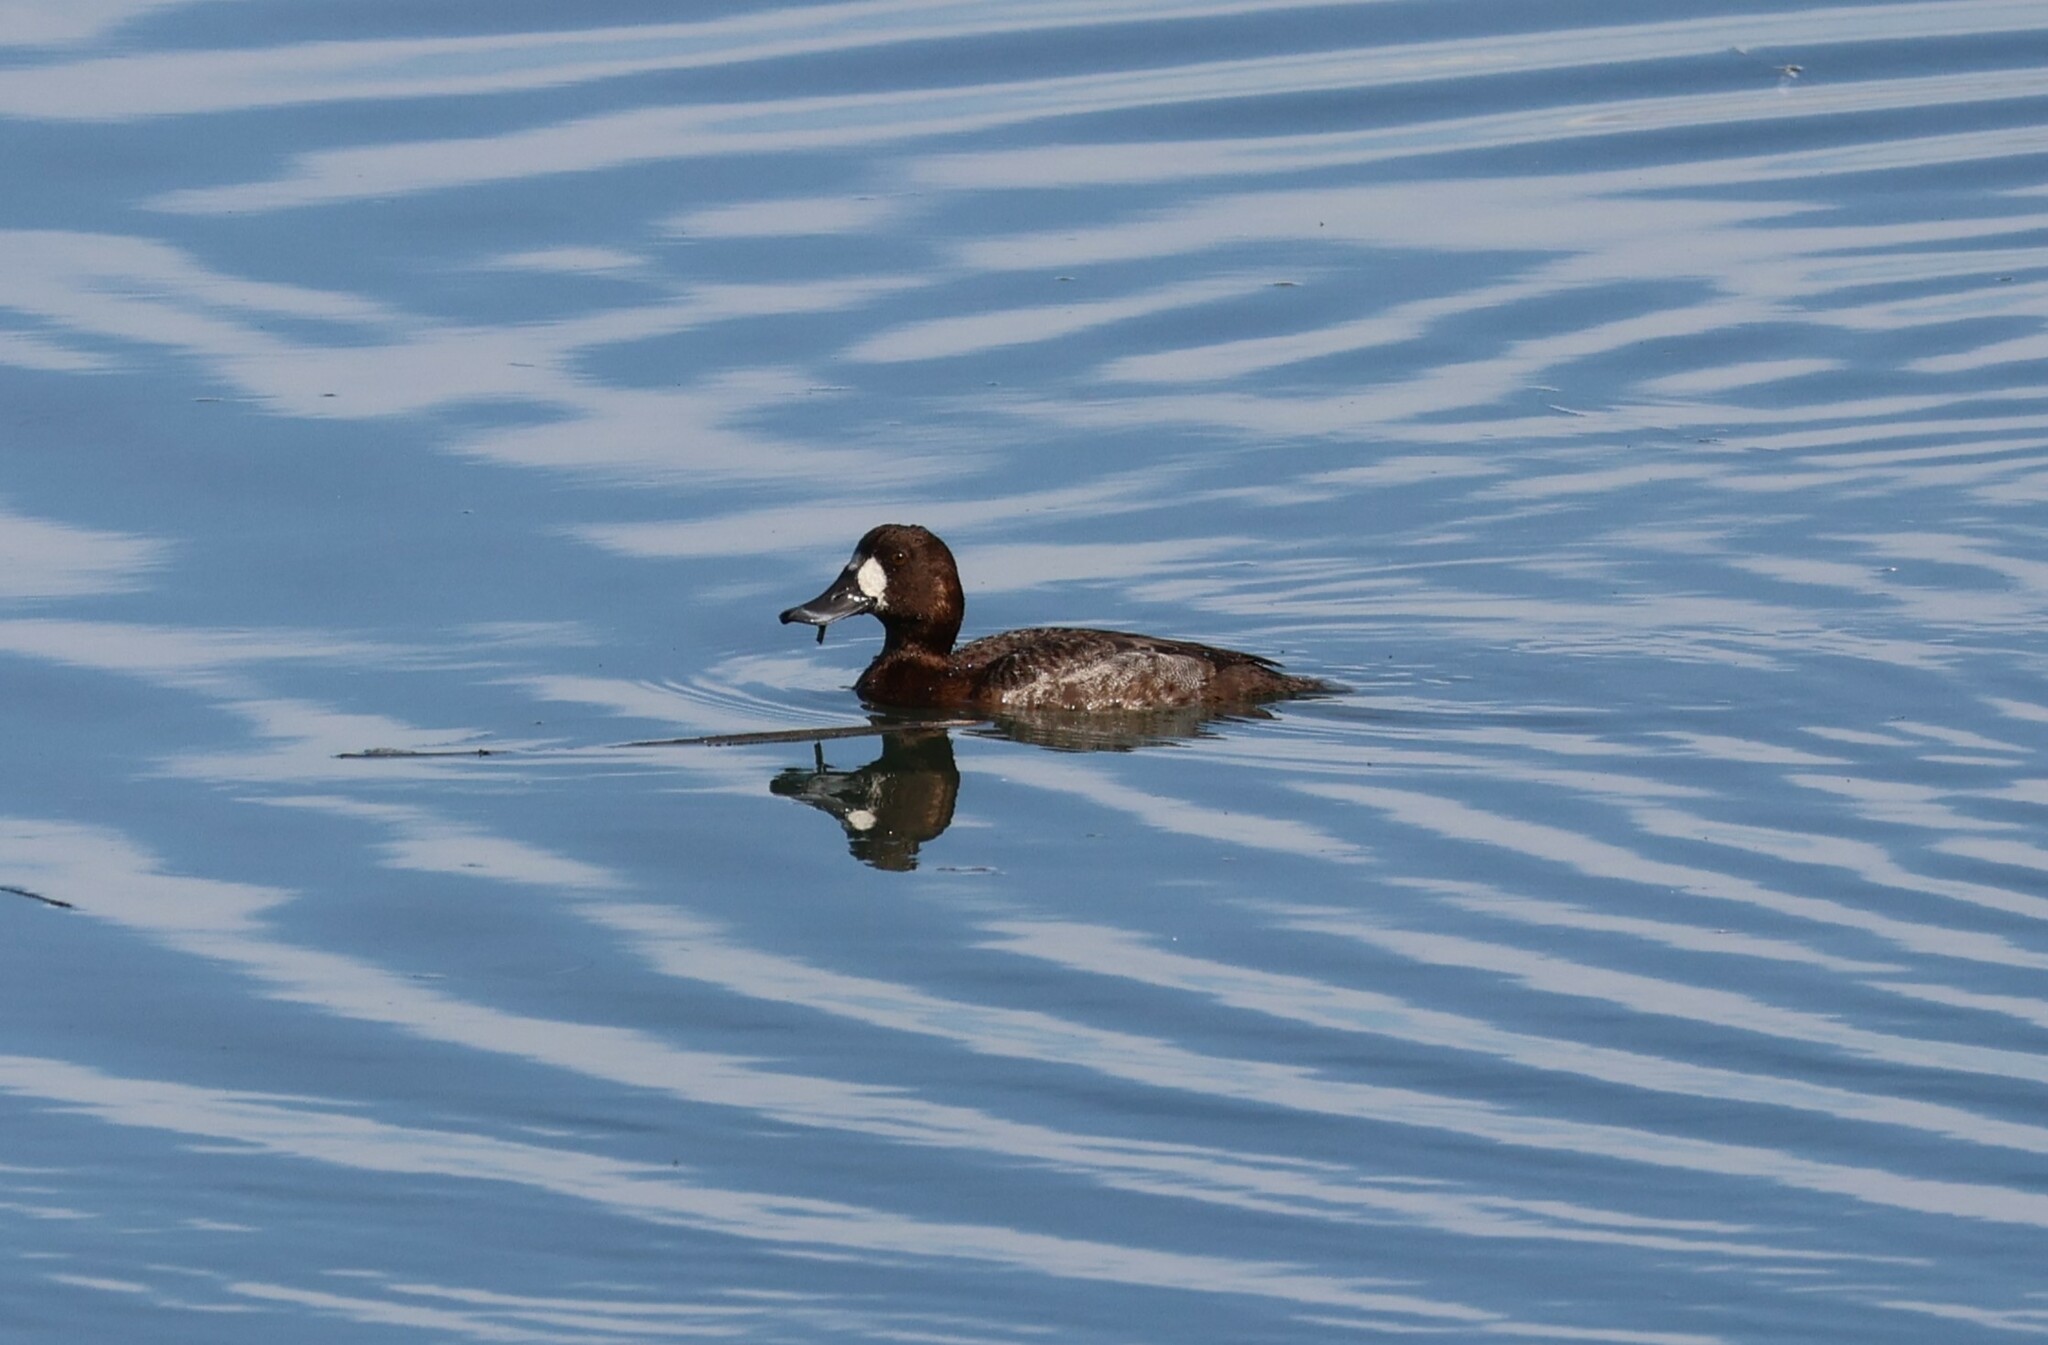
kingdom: Animalia
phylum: Chordata
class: Aves
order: Anseriformes
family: Anatidae
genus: Aythya
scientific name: Aythya affinis
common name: Lesser scaup
